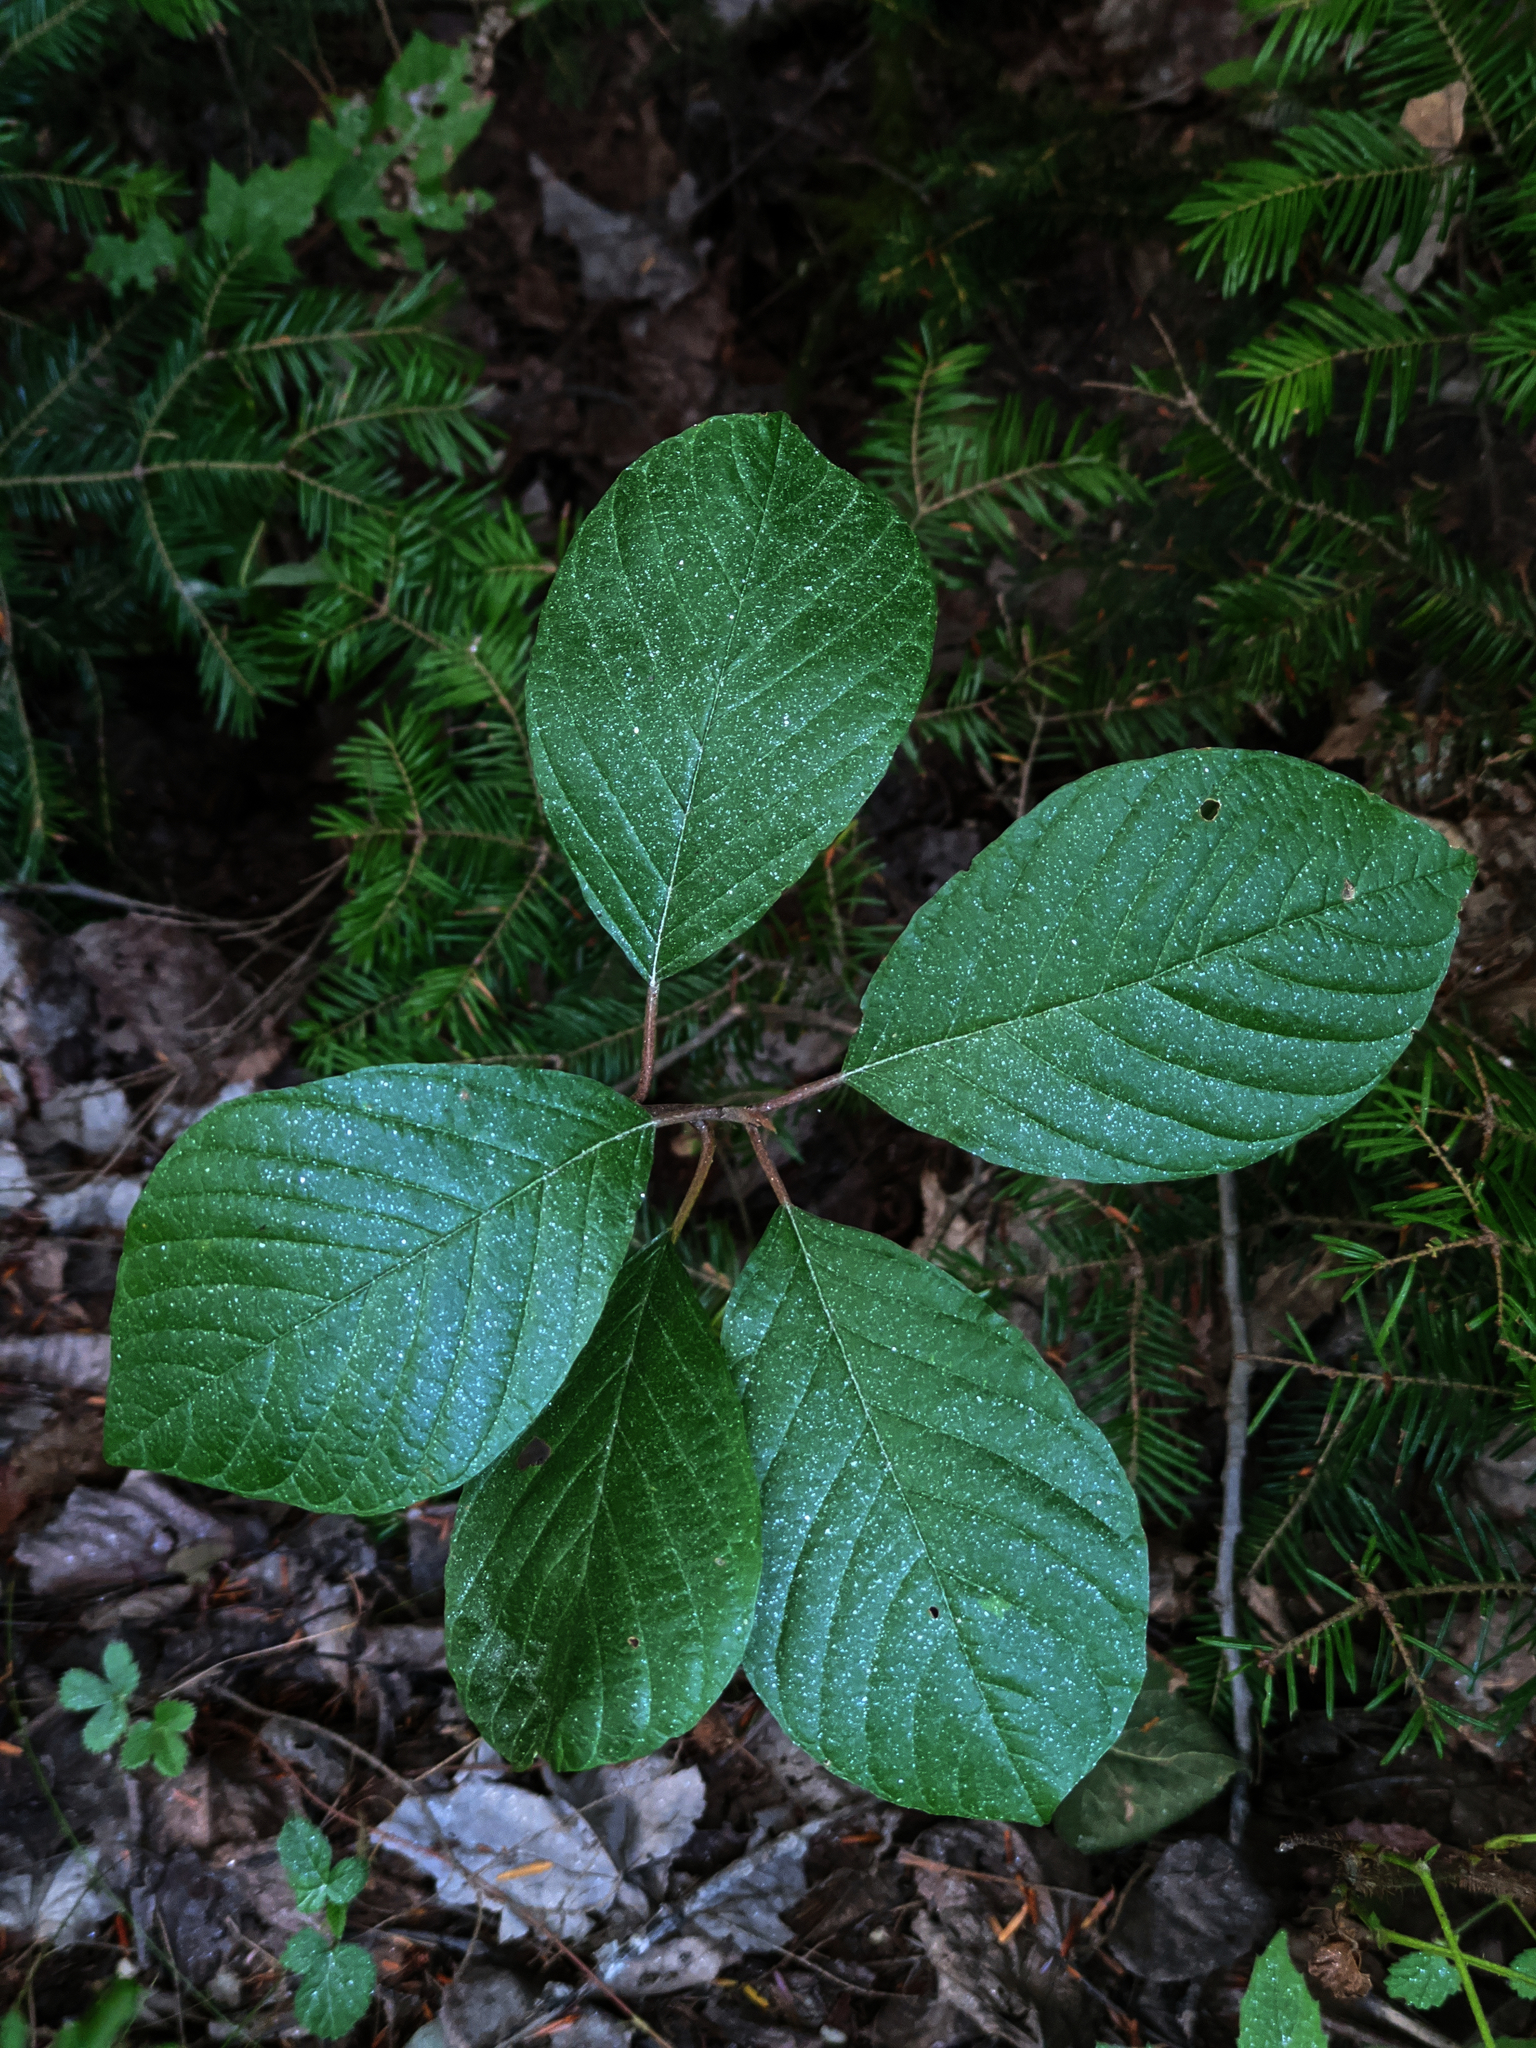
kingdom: Plantae
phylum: Tracheophyta
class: Pinopsida
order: Pinales
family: Pinaceae
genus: Abies
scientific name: Abies balsamea
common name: Balsam fir
